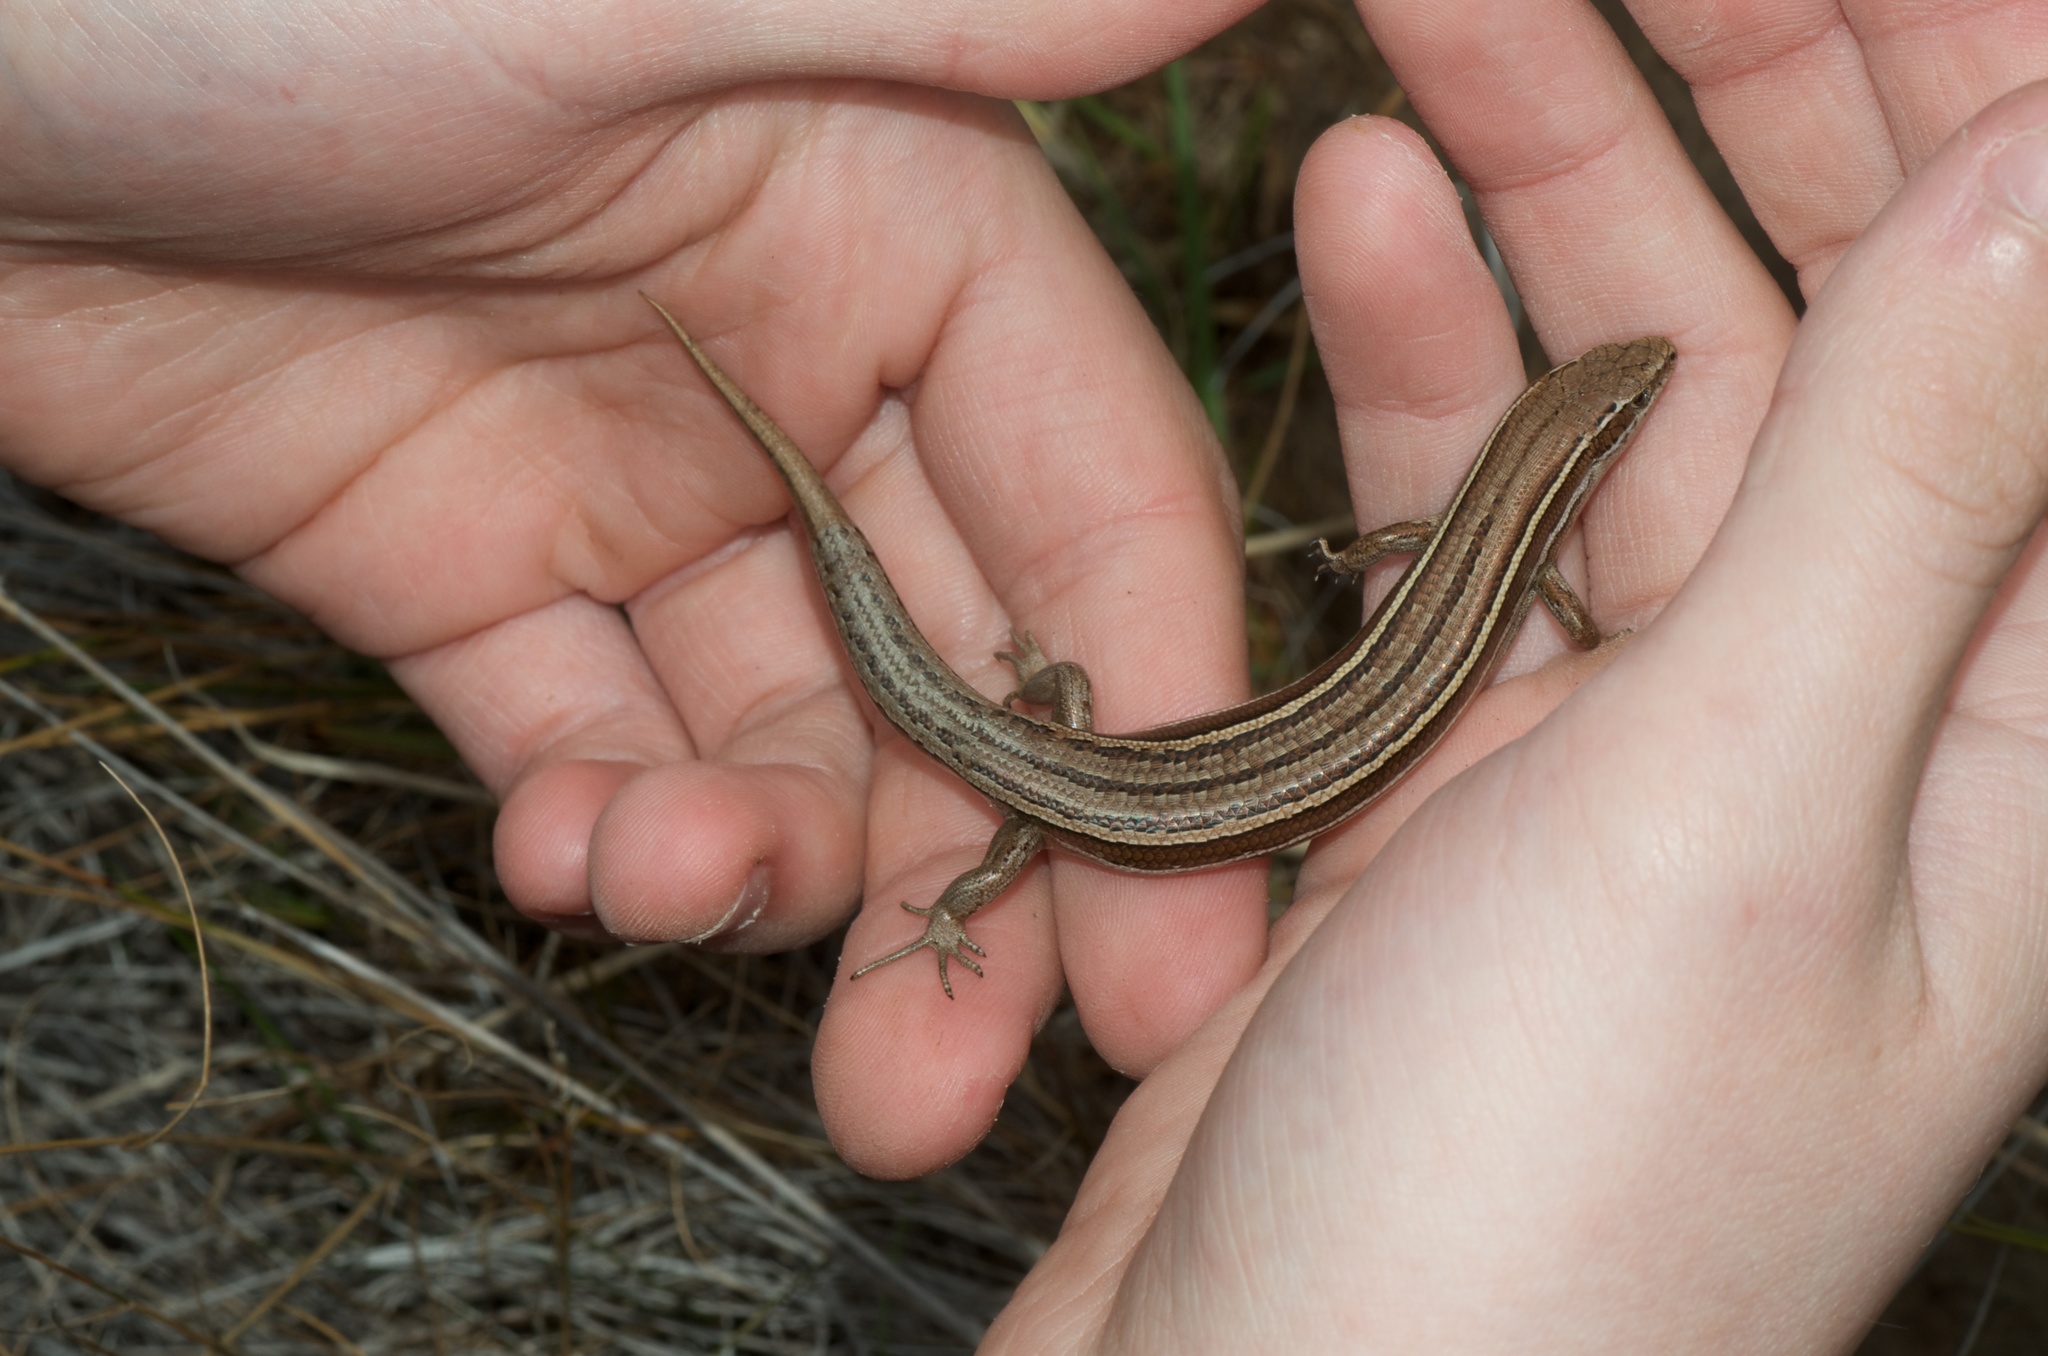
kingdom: Animalia
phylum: Chordata
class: Squamata
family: Scincidae
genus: Oligosoma
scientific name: Oligosoma maccanni
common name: Mccann’s skink
